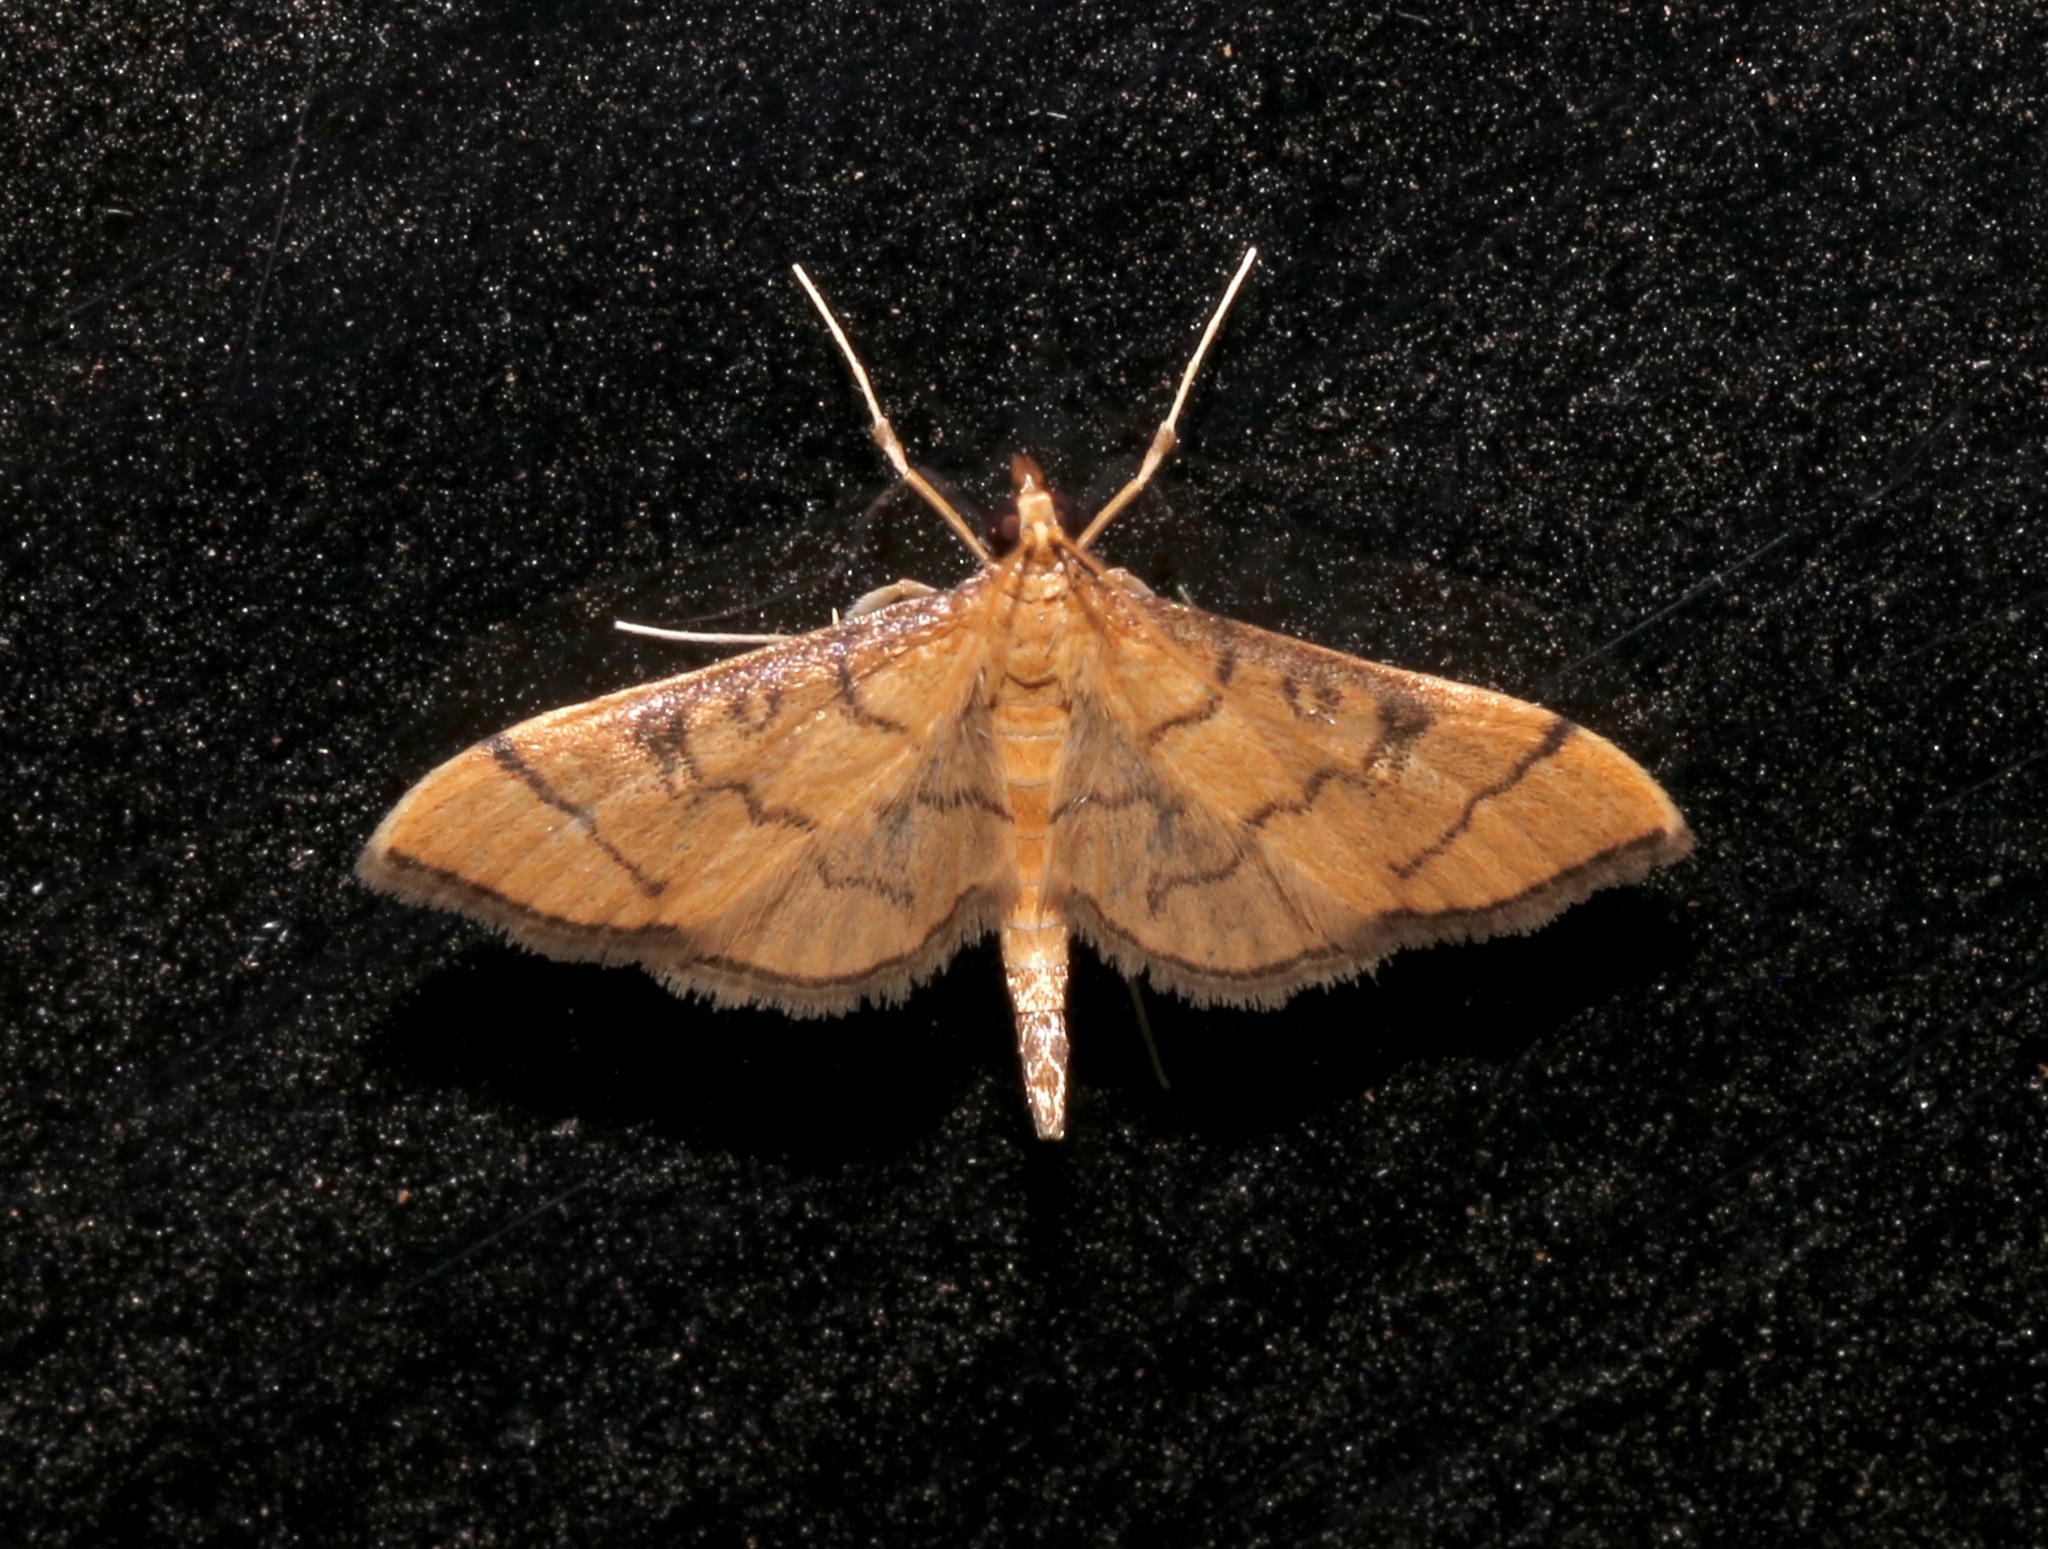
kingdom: Animalia
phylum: Arthropoda
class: Insecta
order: Lepidoptera
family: Crambidae
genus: Lamprosema
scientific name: Lamprosema Blepharomastix ranalis
